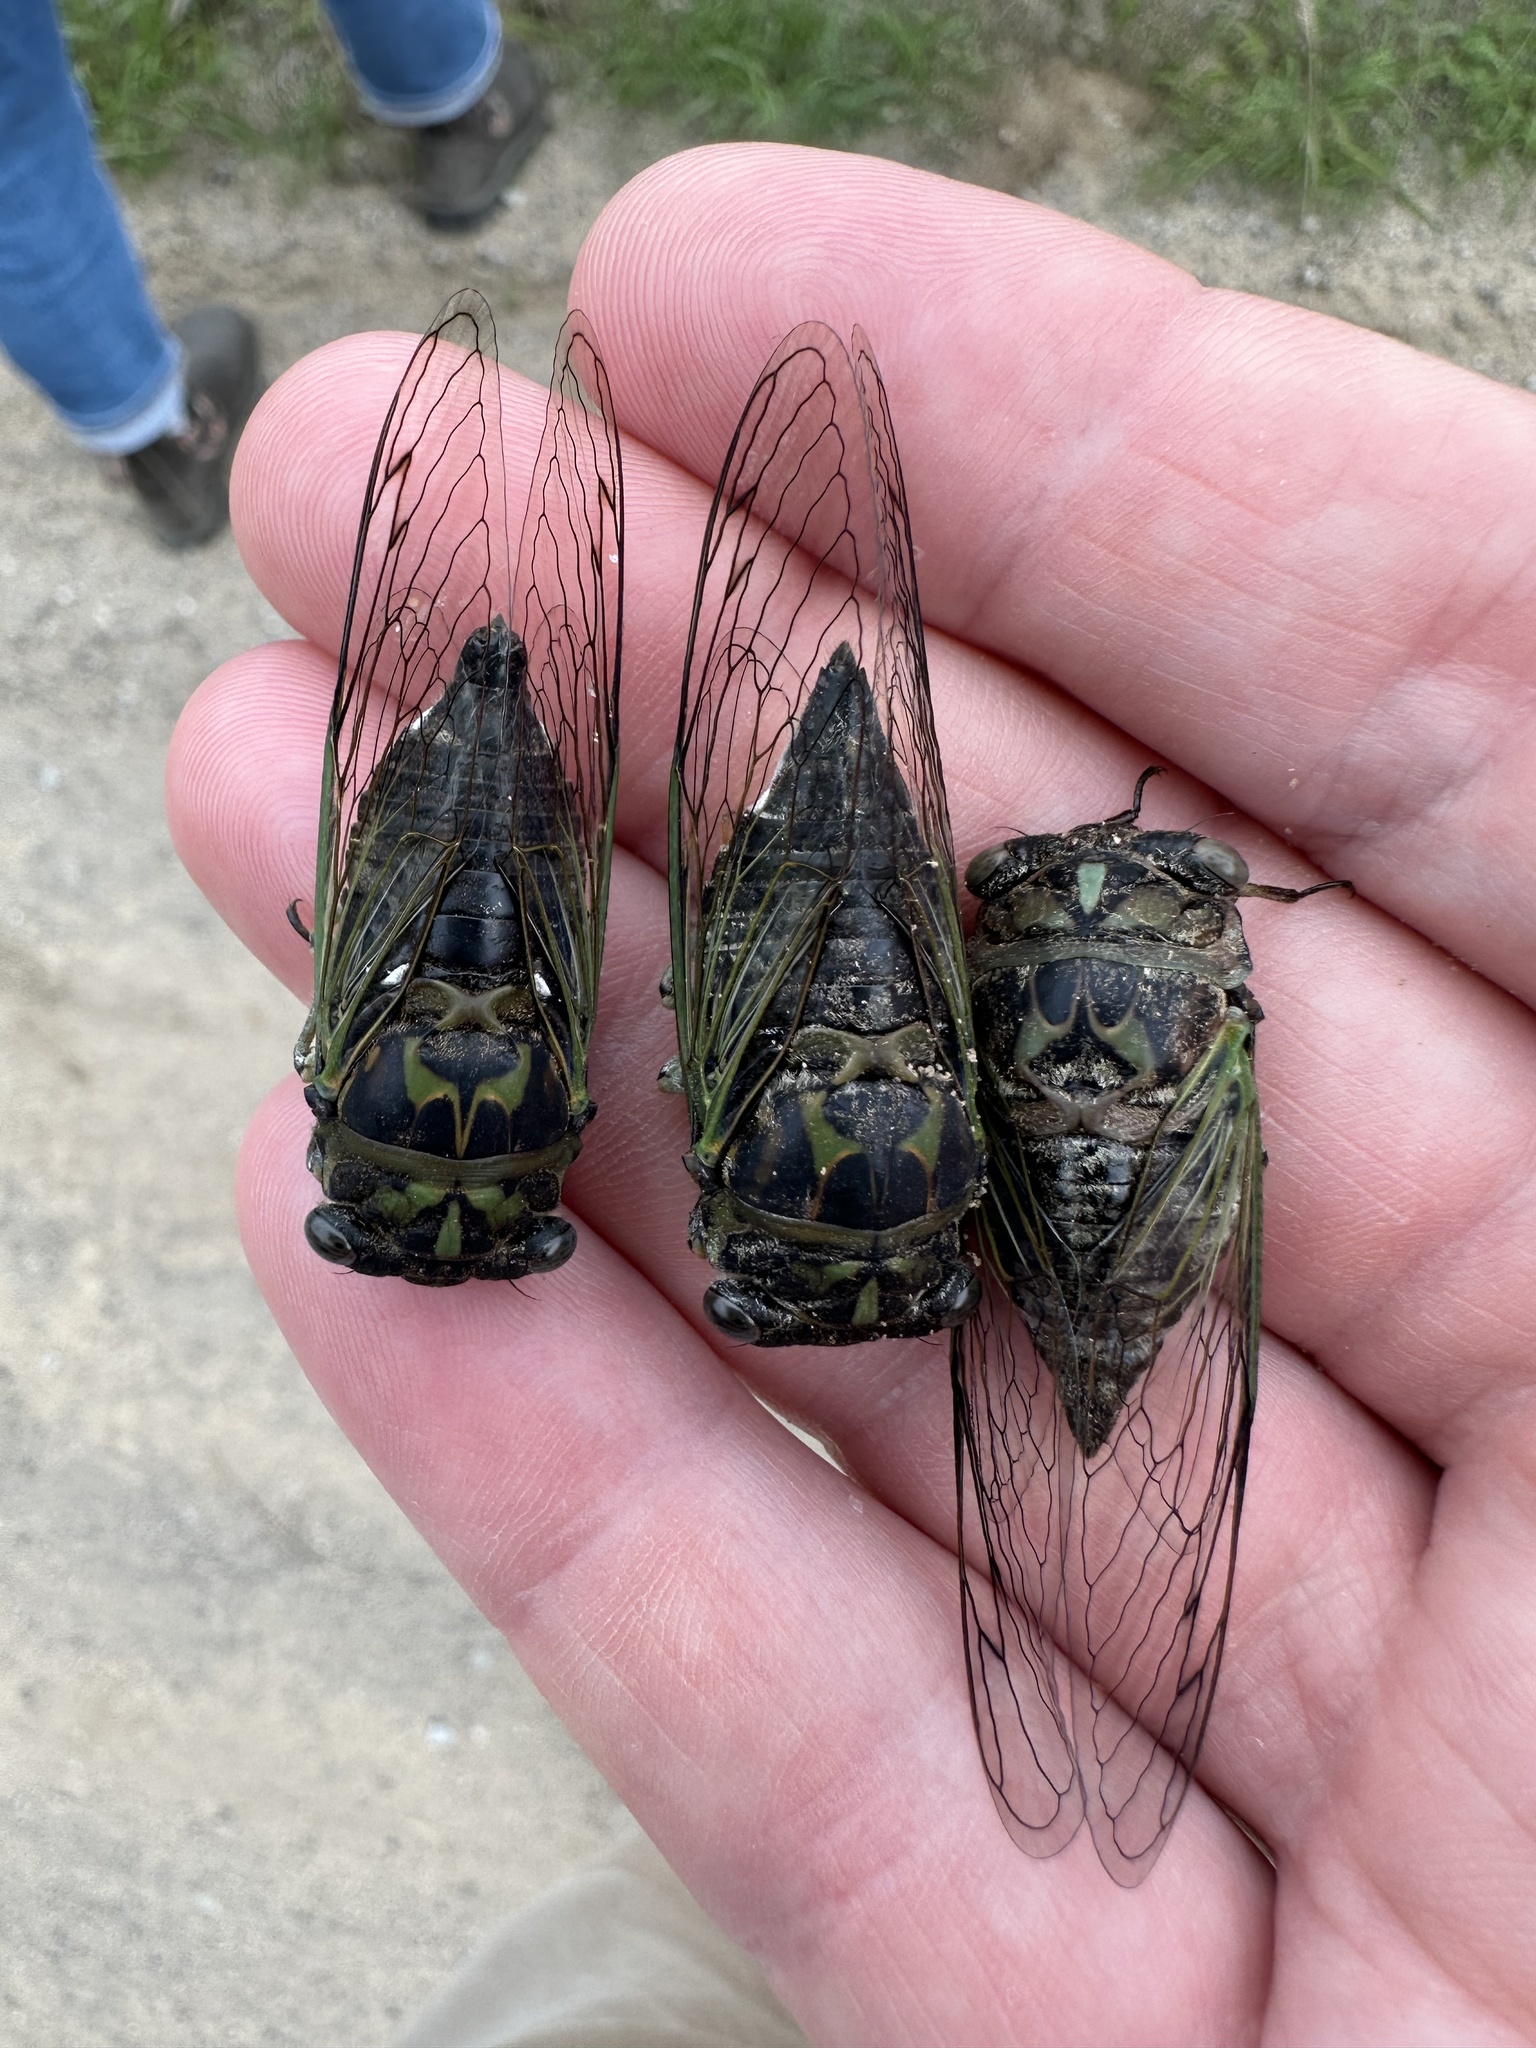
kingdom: Animalia
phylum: Arthropoda
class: Insecta
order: Hemiptera
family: Cicadidae
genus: Neotibicen
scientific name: Neotibicen canicularis
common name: God-day cicada
